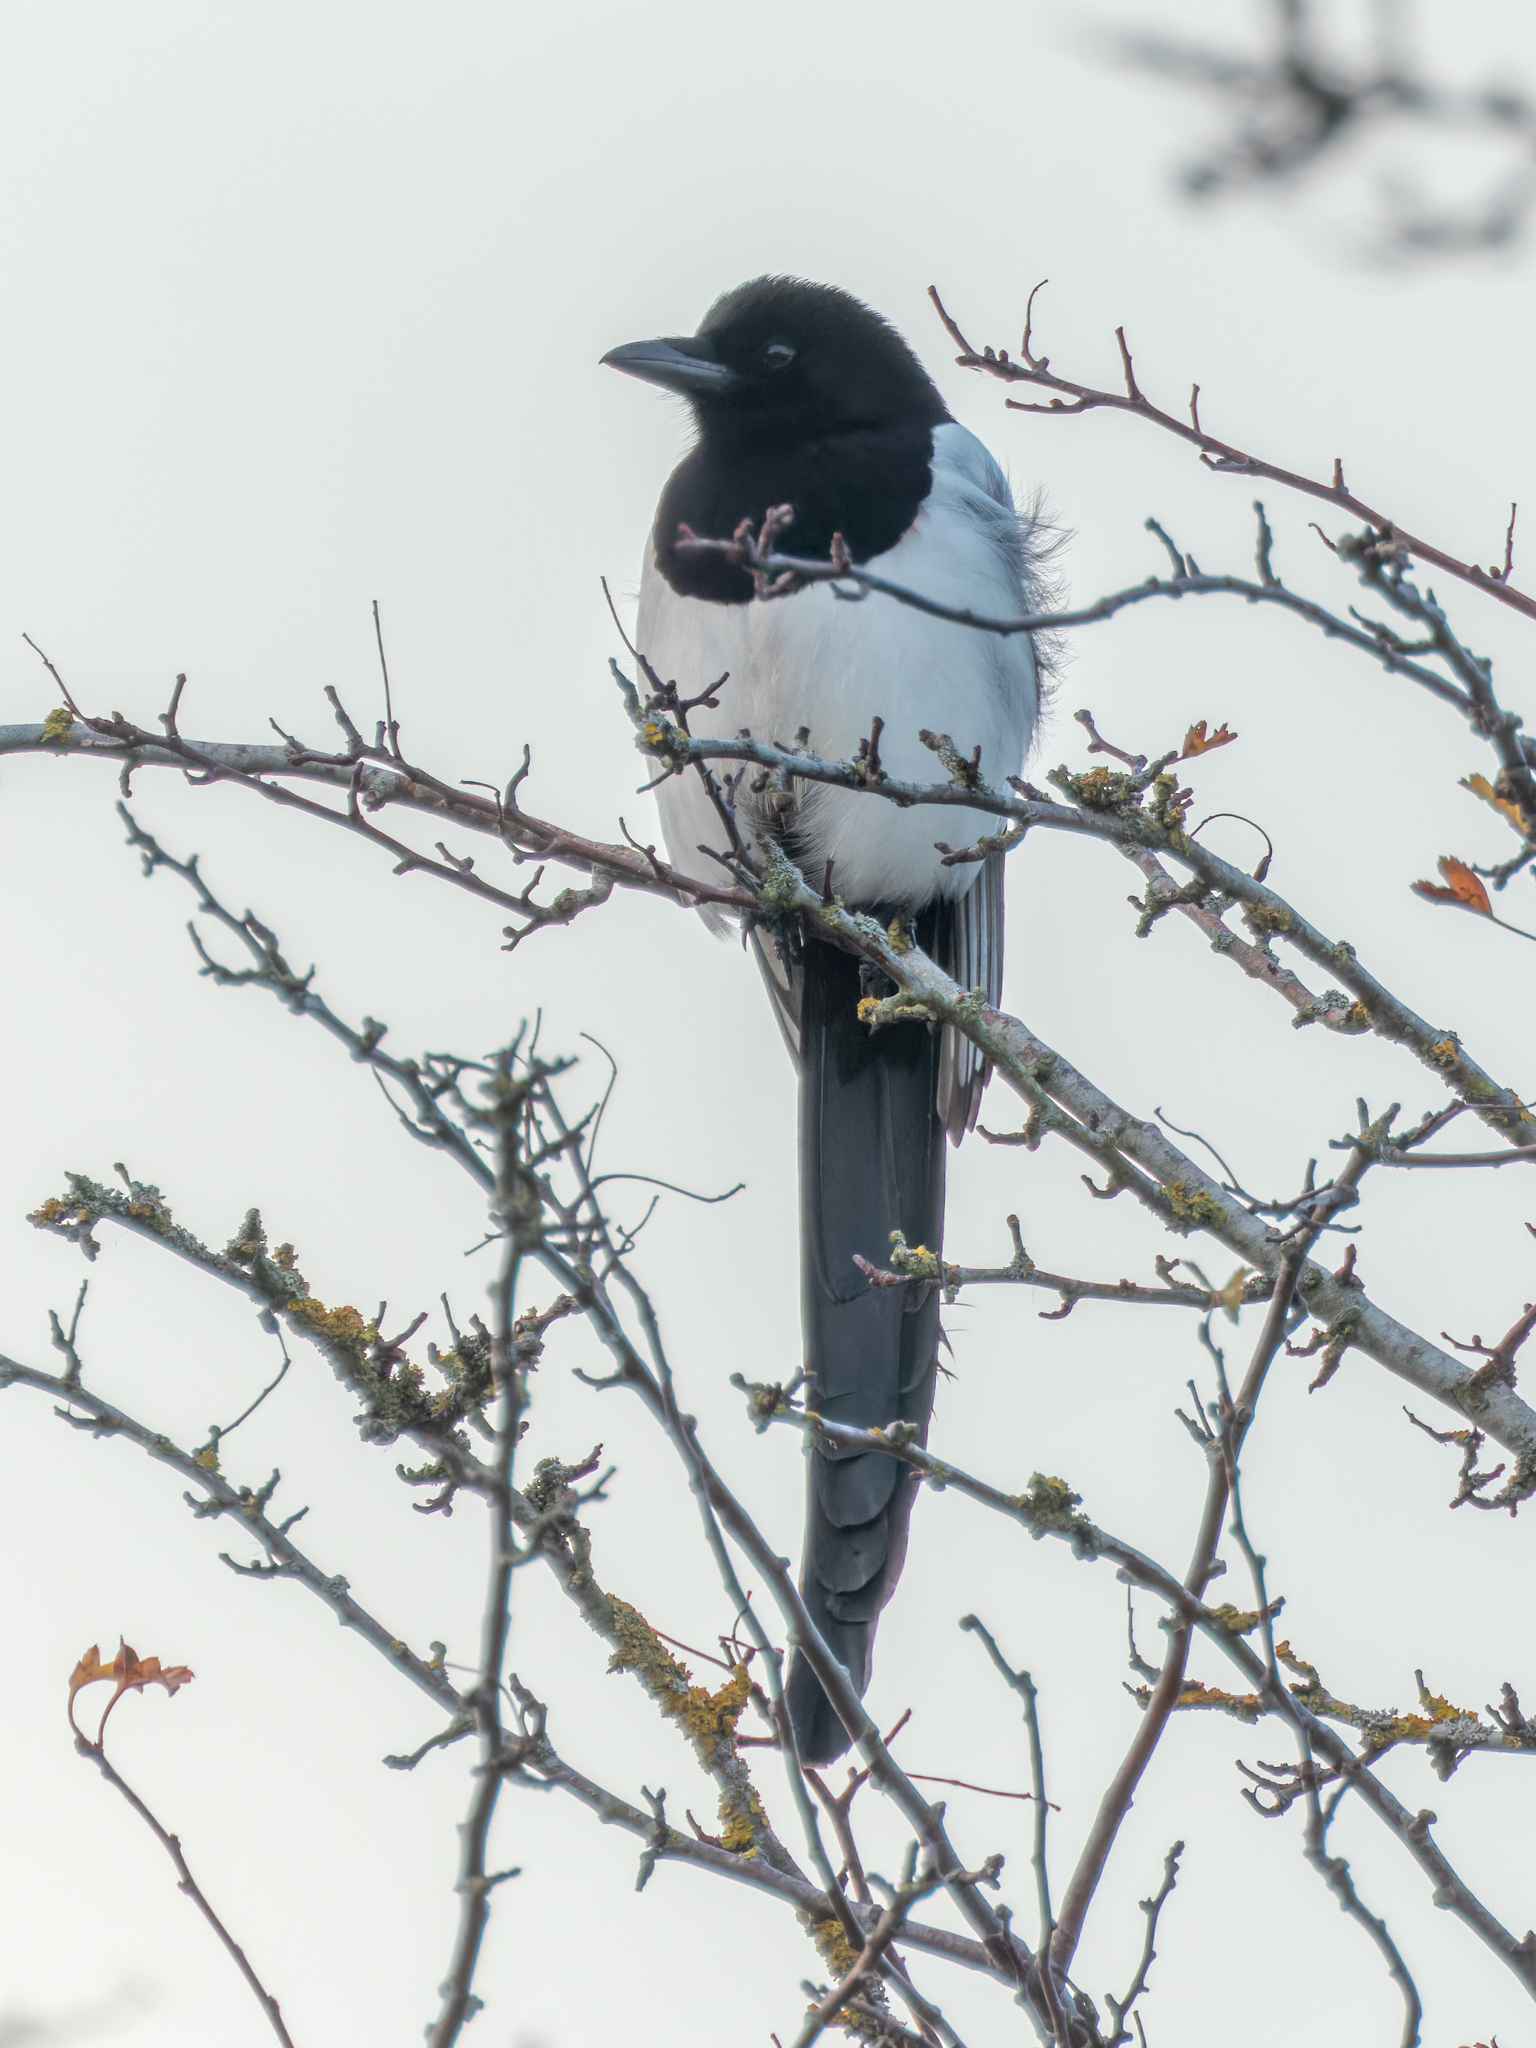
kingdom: Animalia
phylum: Chordata
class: Aves
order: Passeriformes
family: Corvidae
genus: Pica
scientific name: Pica pica
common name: Eurasian magpie
